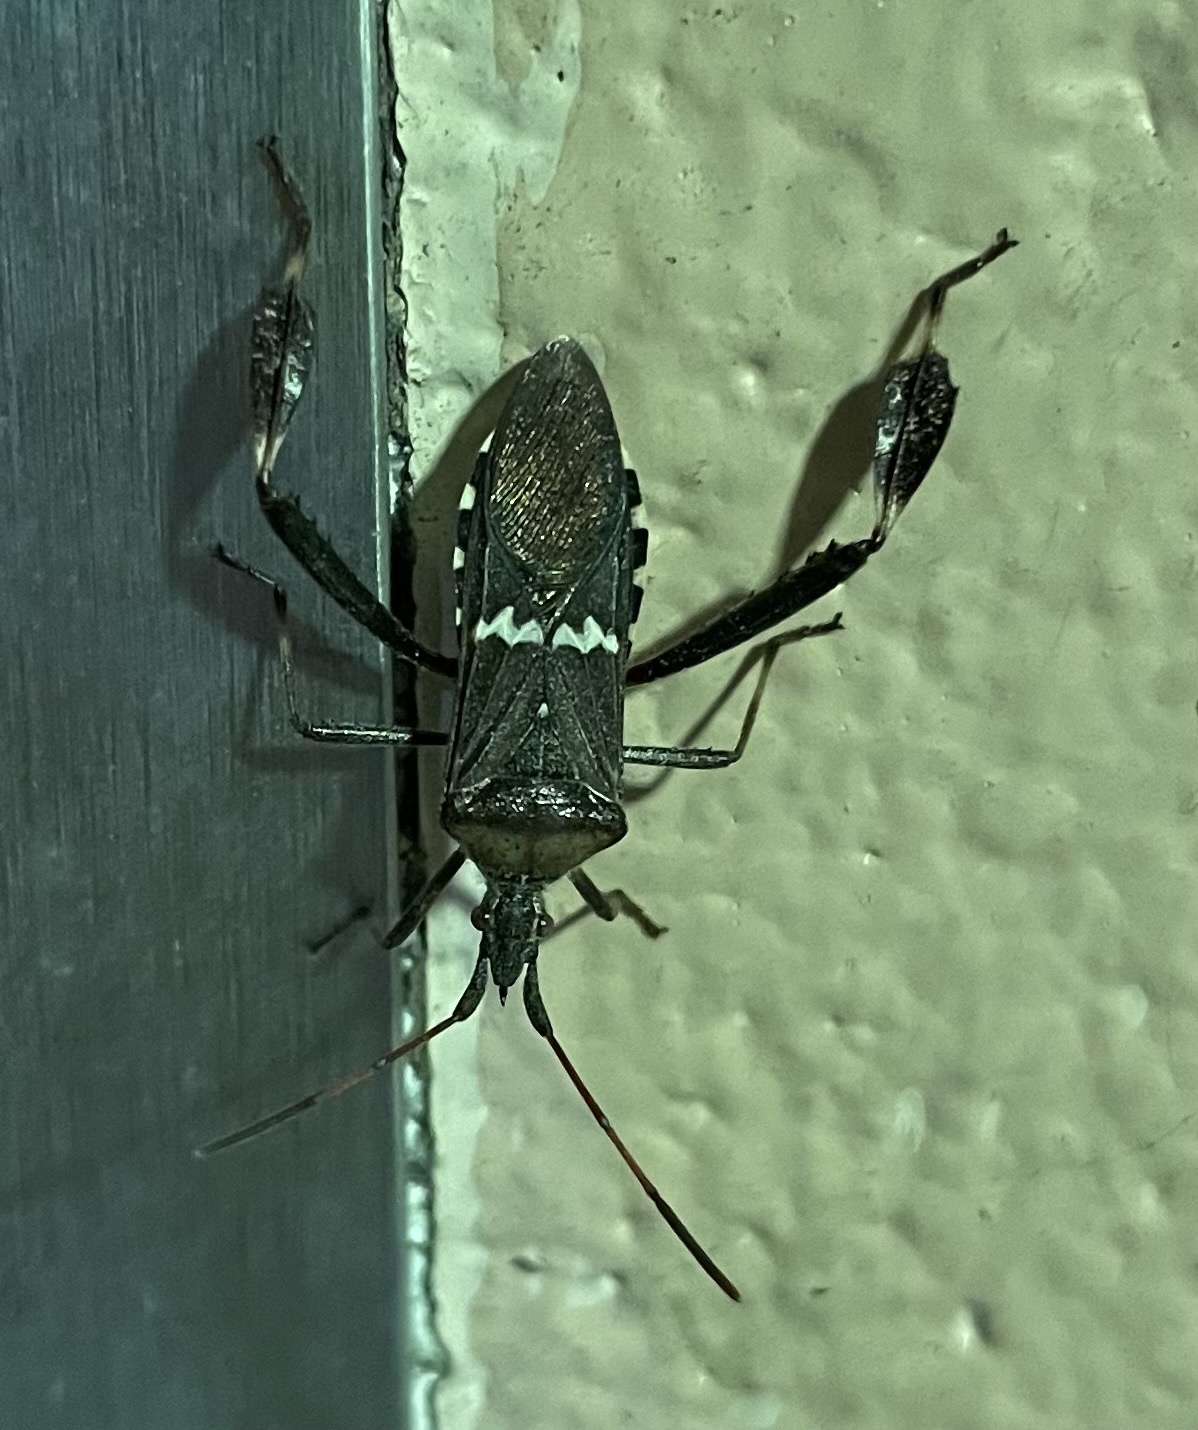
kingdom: Animalia
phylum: Arthropoda
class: Insecta
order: Hemiptera
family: Coreidae
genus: Leptoglossus
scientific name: Leptoglossus clypealis
